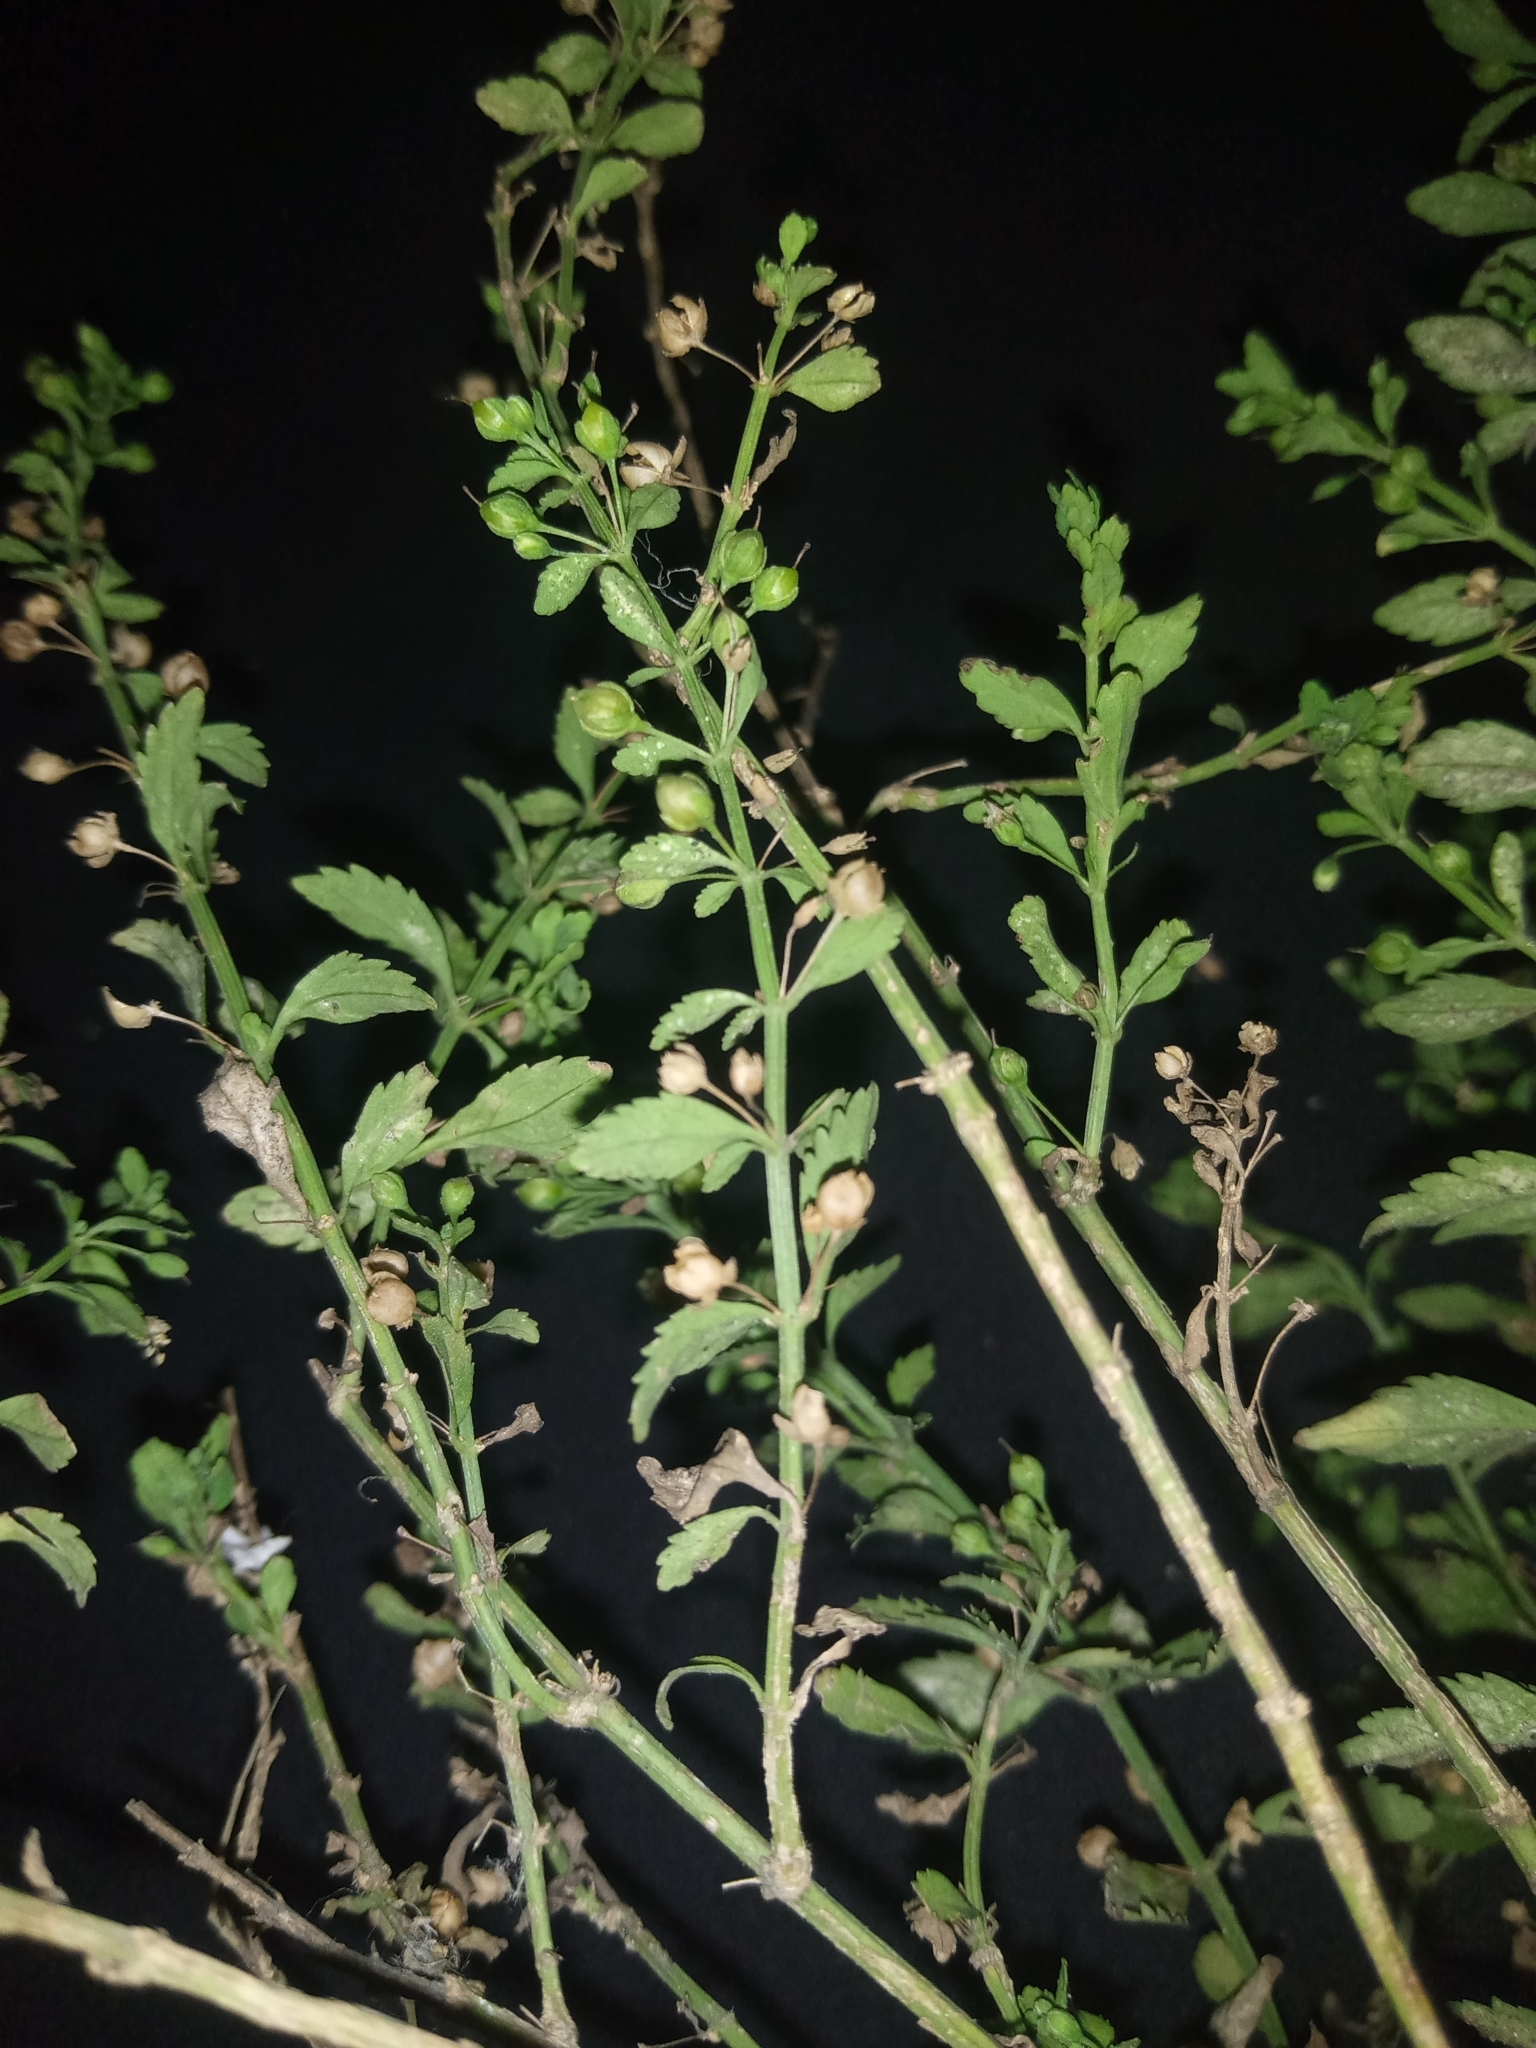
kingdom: Plantae
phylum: Tracheophyta
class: Magnoliopsida
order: Lamiales
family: Plantaginaceae
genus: Scoparia
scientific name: Scoparia dulcis
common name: Scoparia-weed
